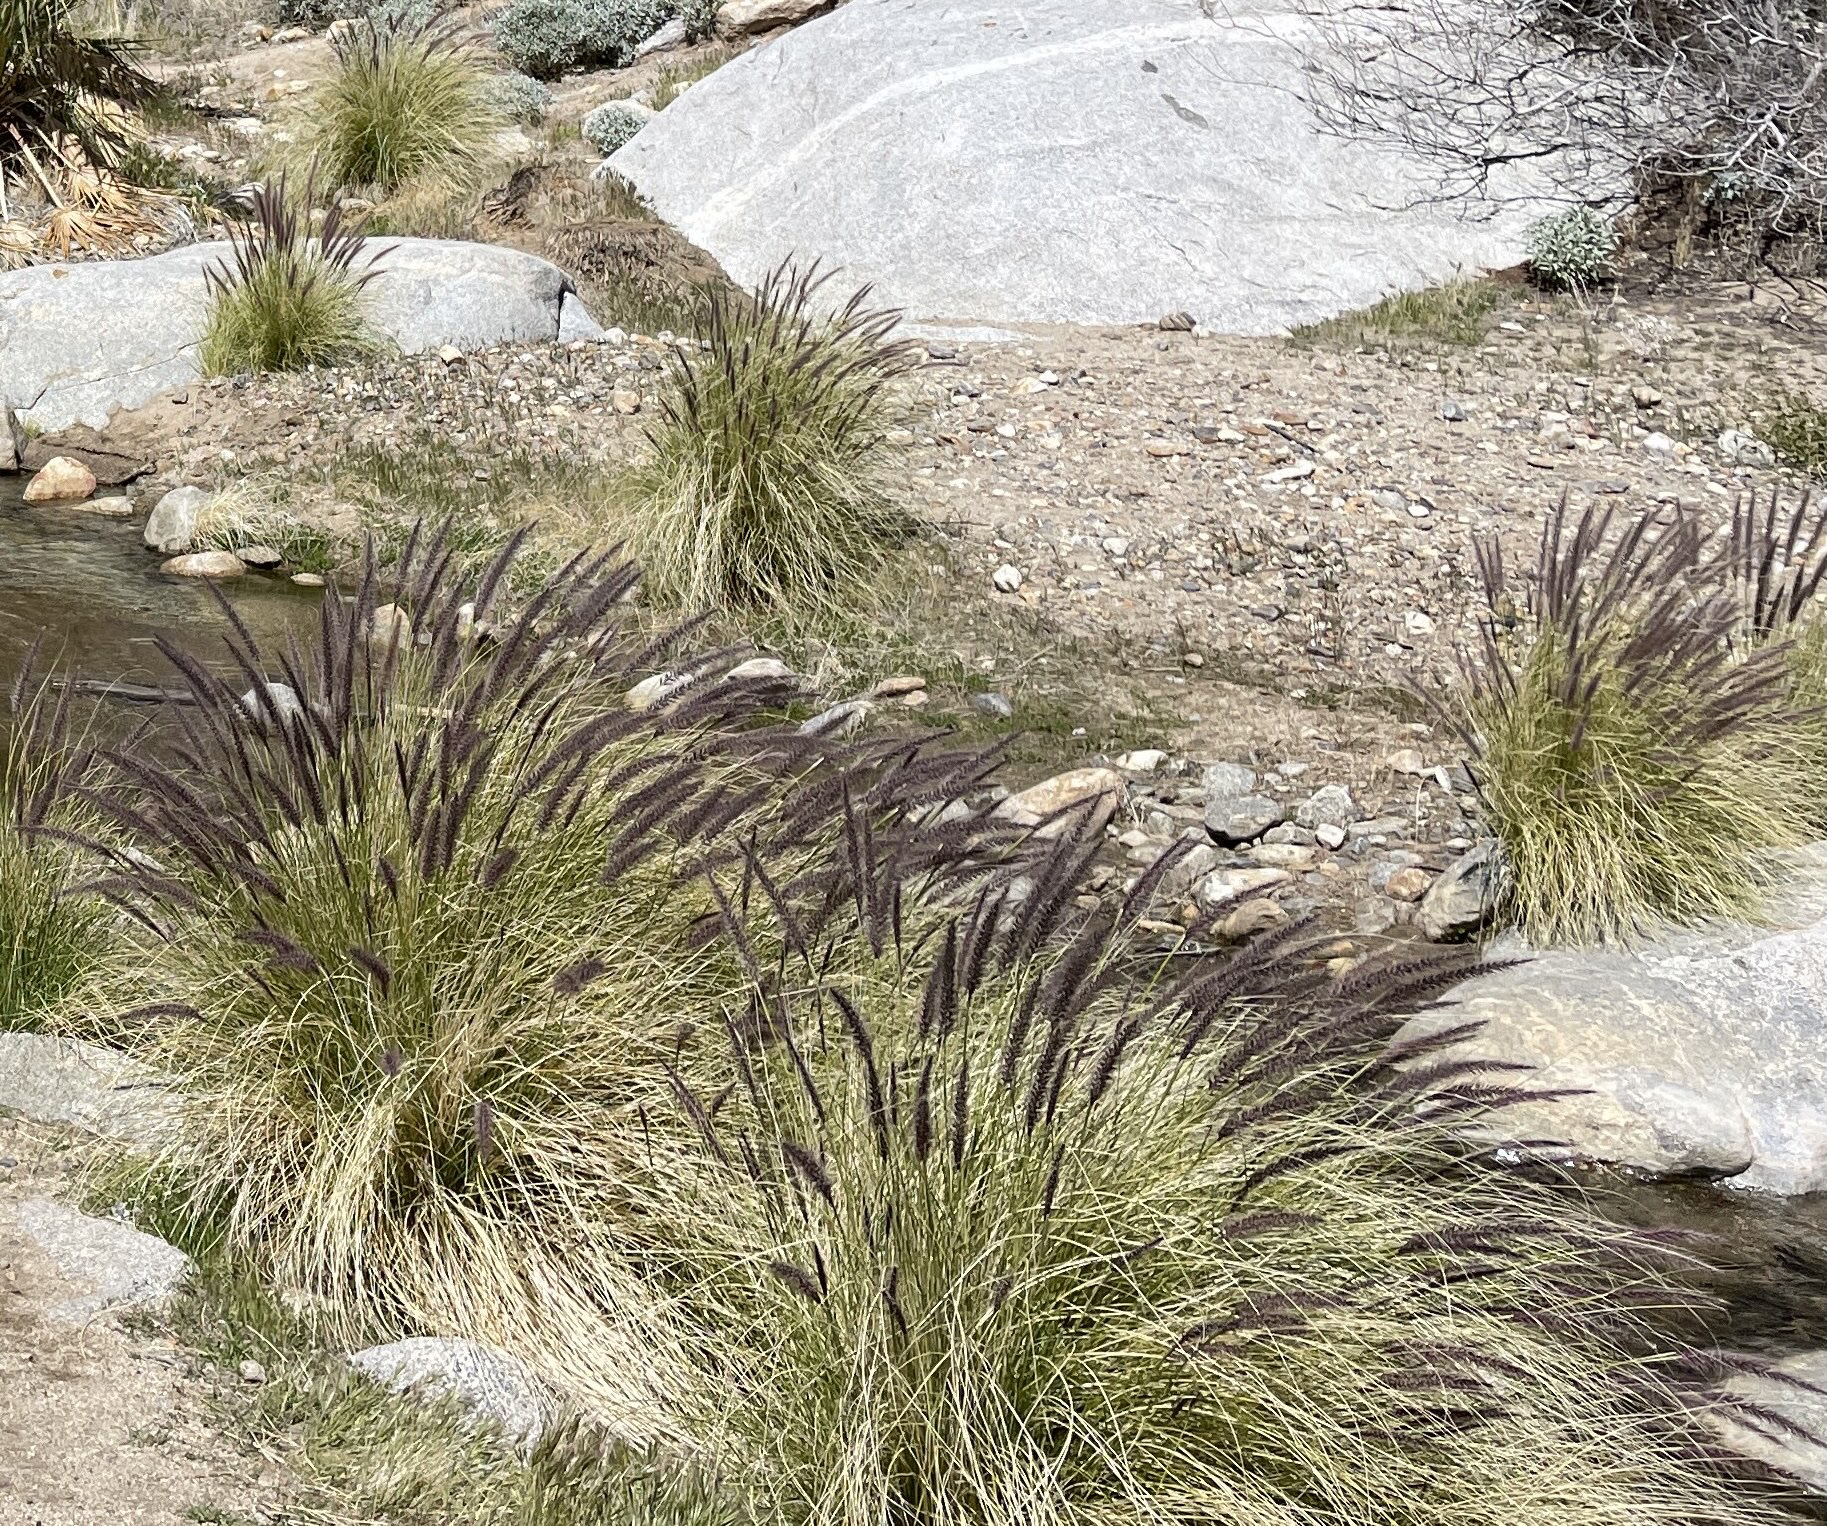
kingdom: Plantae
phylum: Tracheophyta
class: Liliopsida
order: Poales
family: Poaceae
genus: Cenchrus
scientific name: Cenchrus setaceus
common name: Crimson fountaingrass
